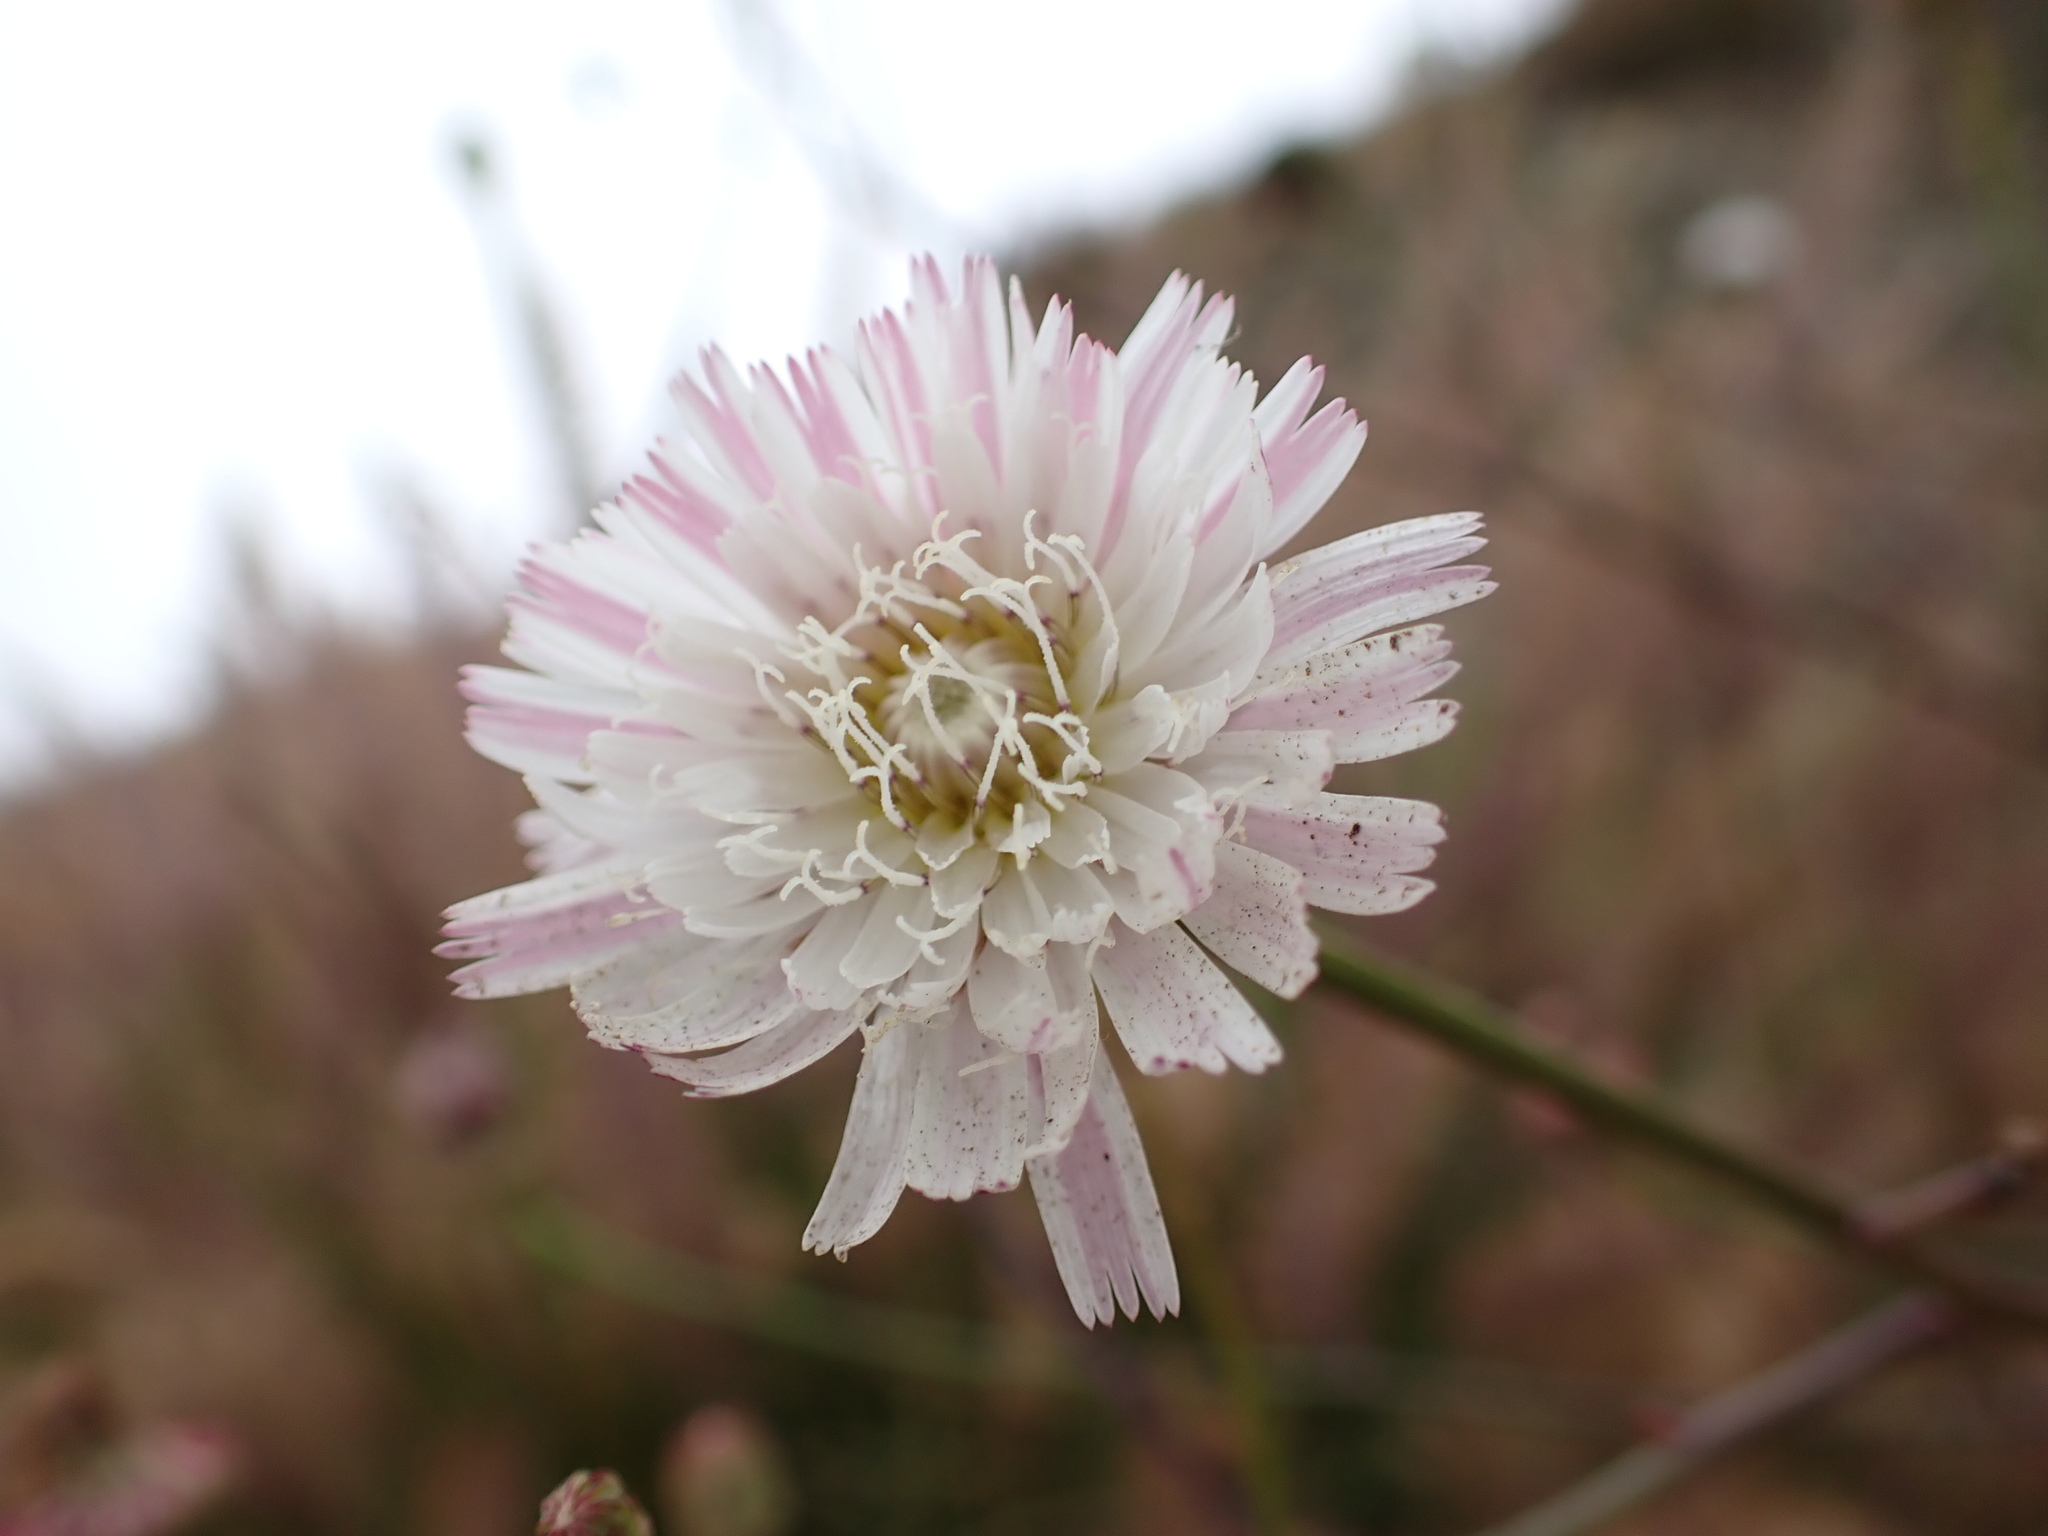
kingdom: Plantae
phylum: Tracheophyta
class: Magnoliopsida
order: Asterales
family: Asteraceae
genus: Malacothrix
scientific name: Malacothrix saxatilis
